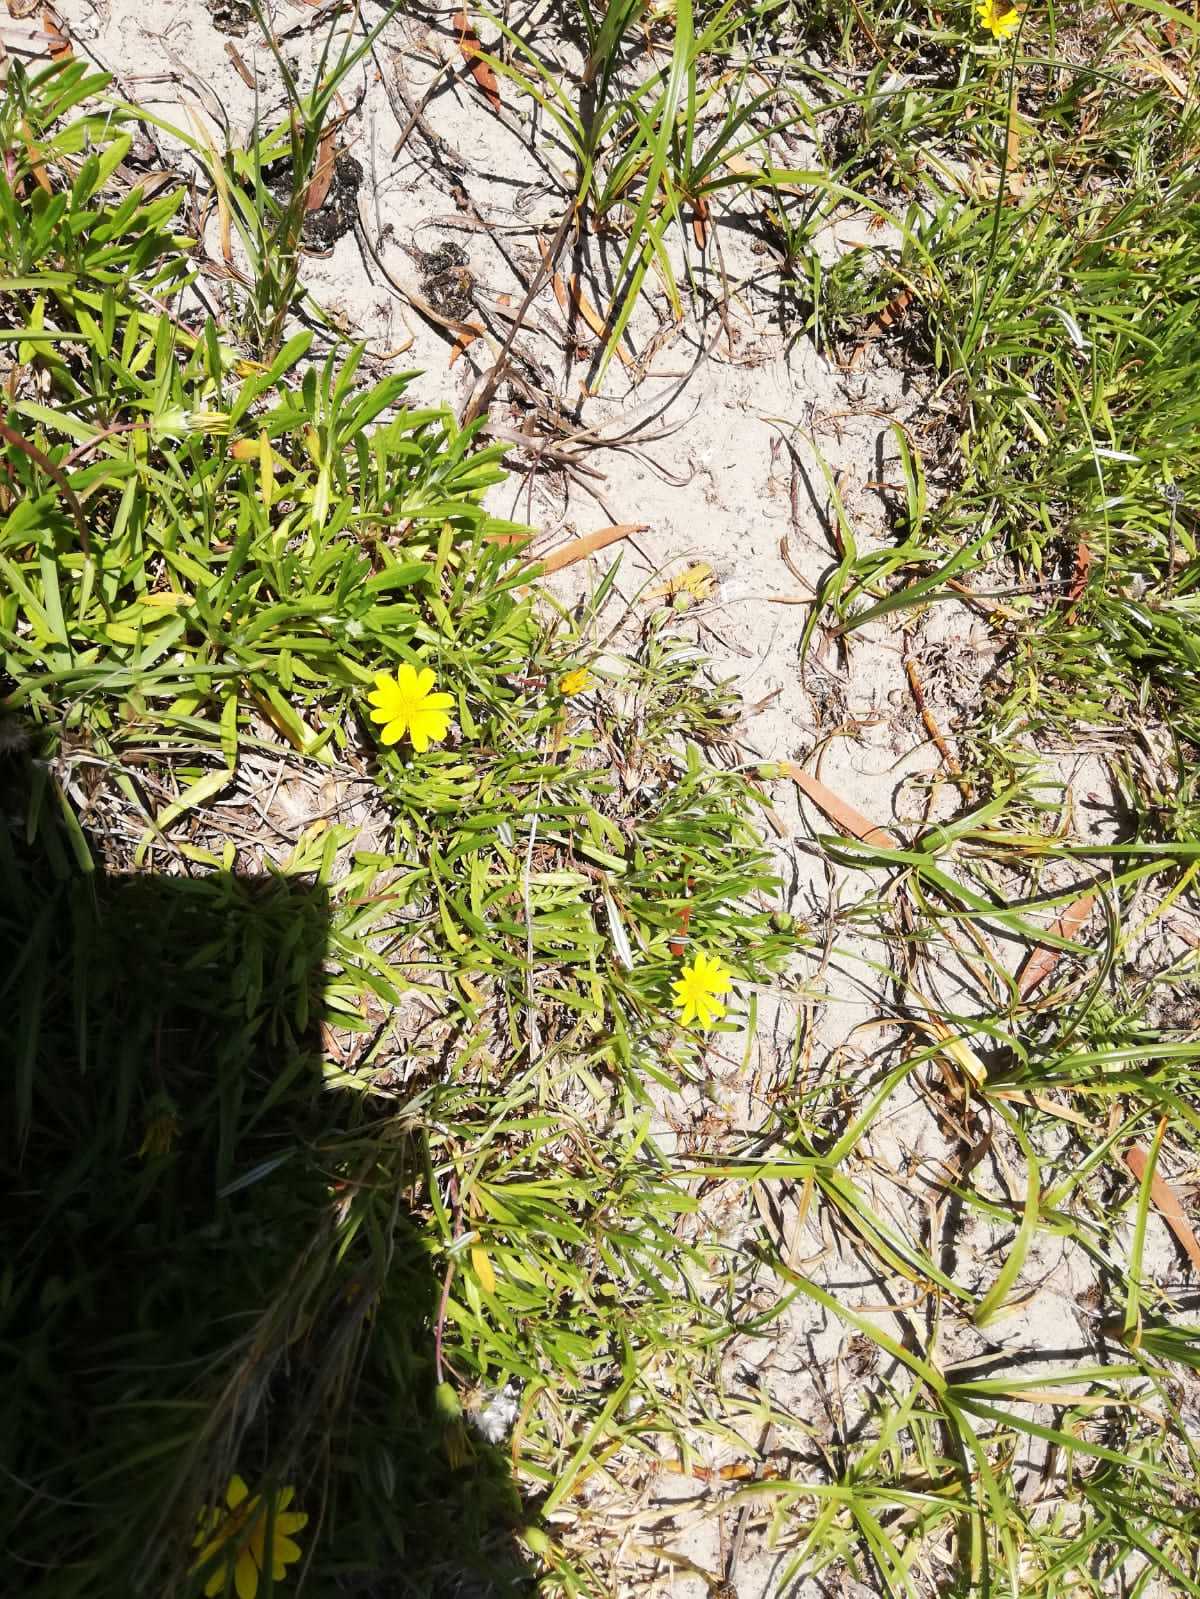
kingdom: Plantae
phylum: Tracheophyta
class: Magnoliopsida
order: Asterales
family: Asteraceae
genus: Gazania
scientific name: Gazania rigens
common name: Treasureflower
